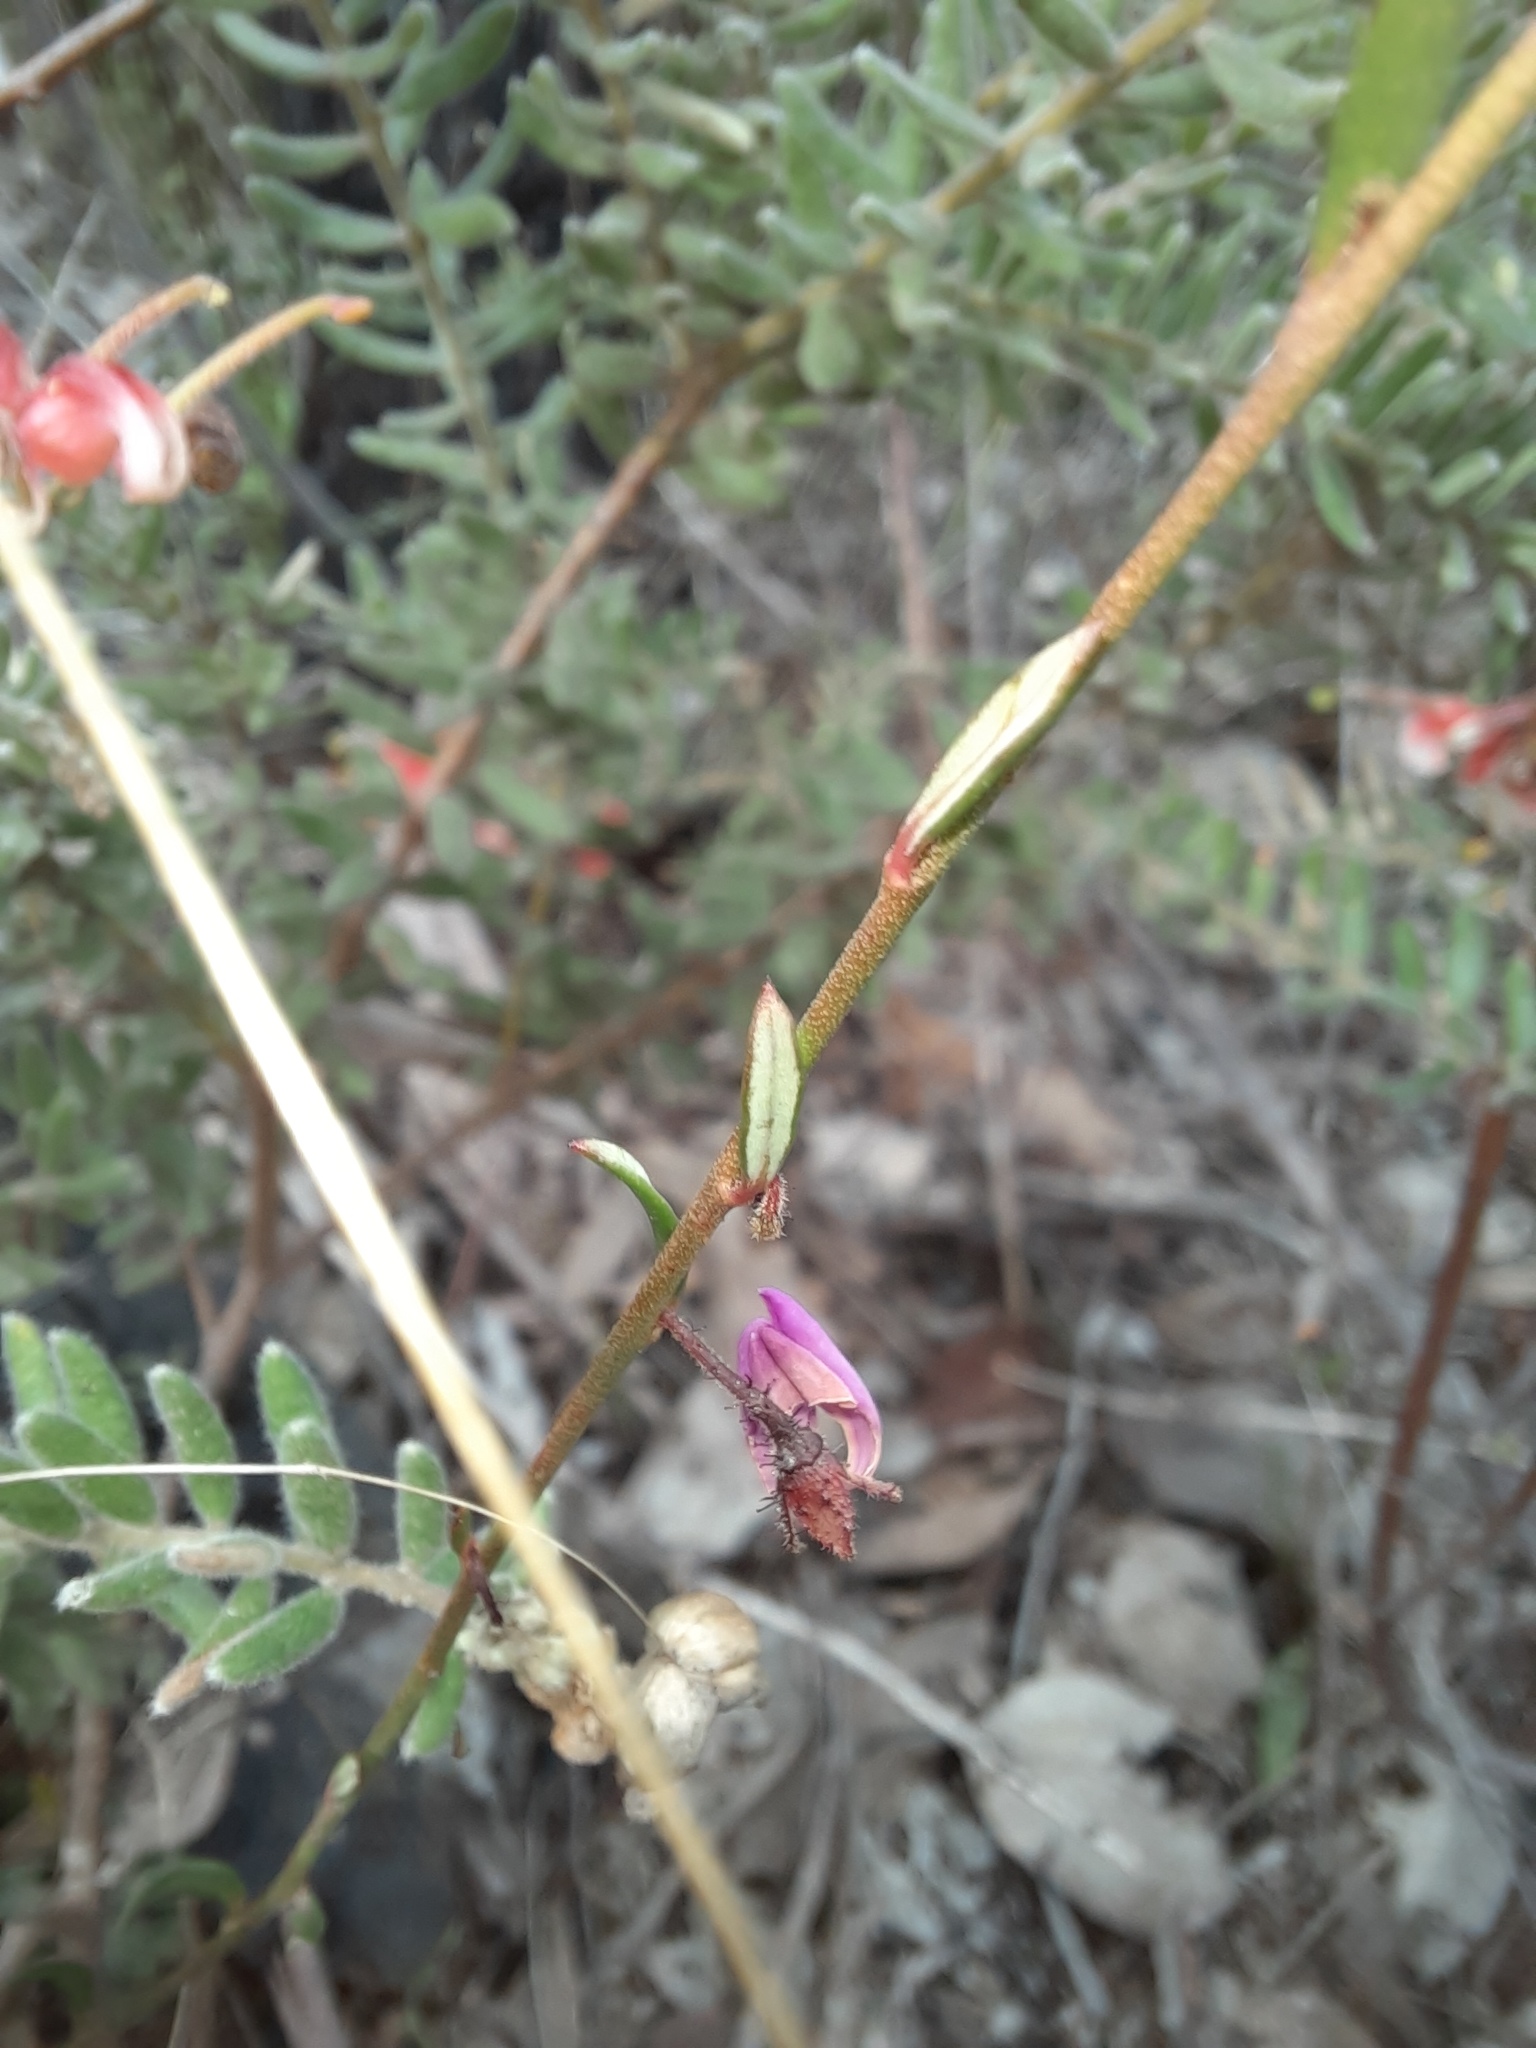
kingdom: Plantae
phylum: Tracheophyta
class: Magnoliopsida
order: Oxalidales
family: Elaeocarpaceae
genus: Tetratheca
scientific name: Tetratheca ciliata
